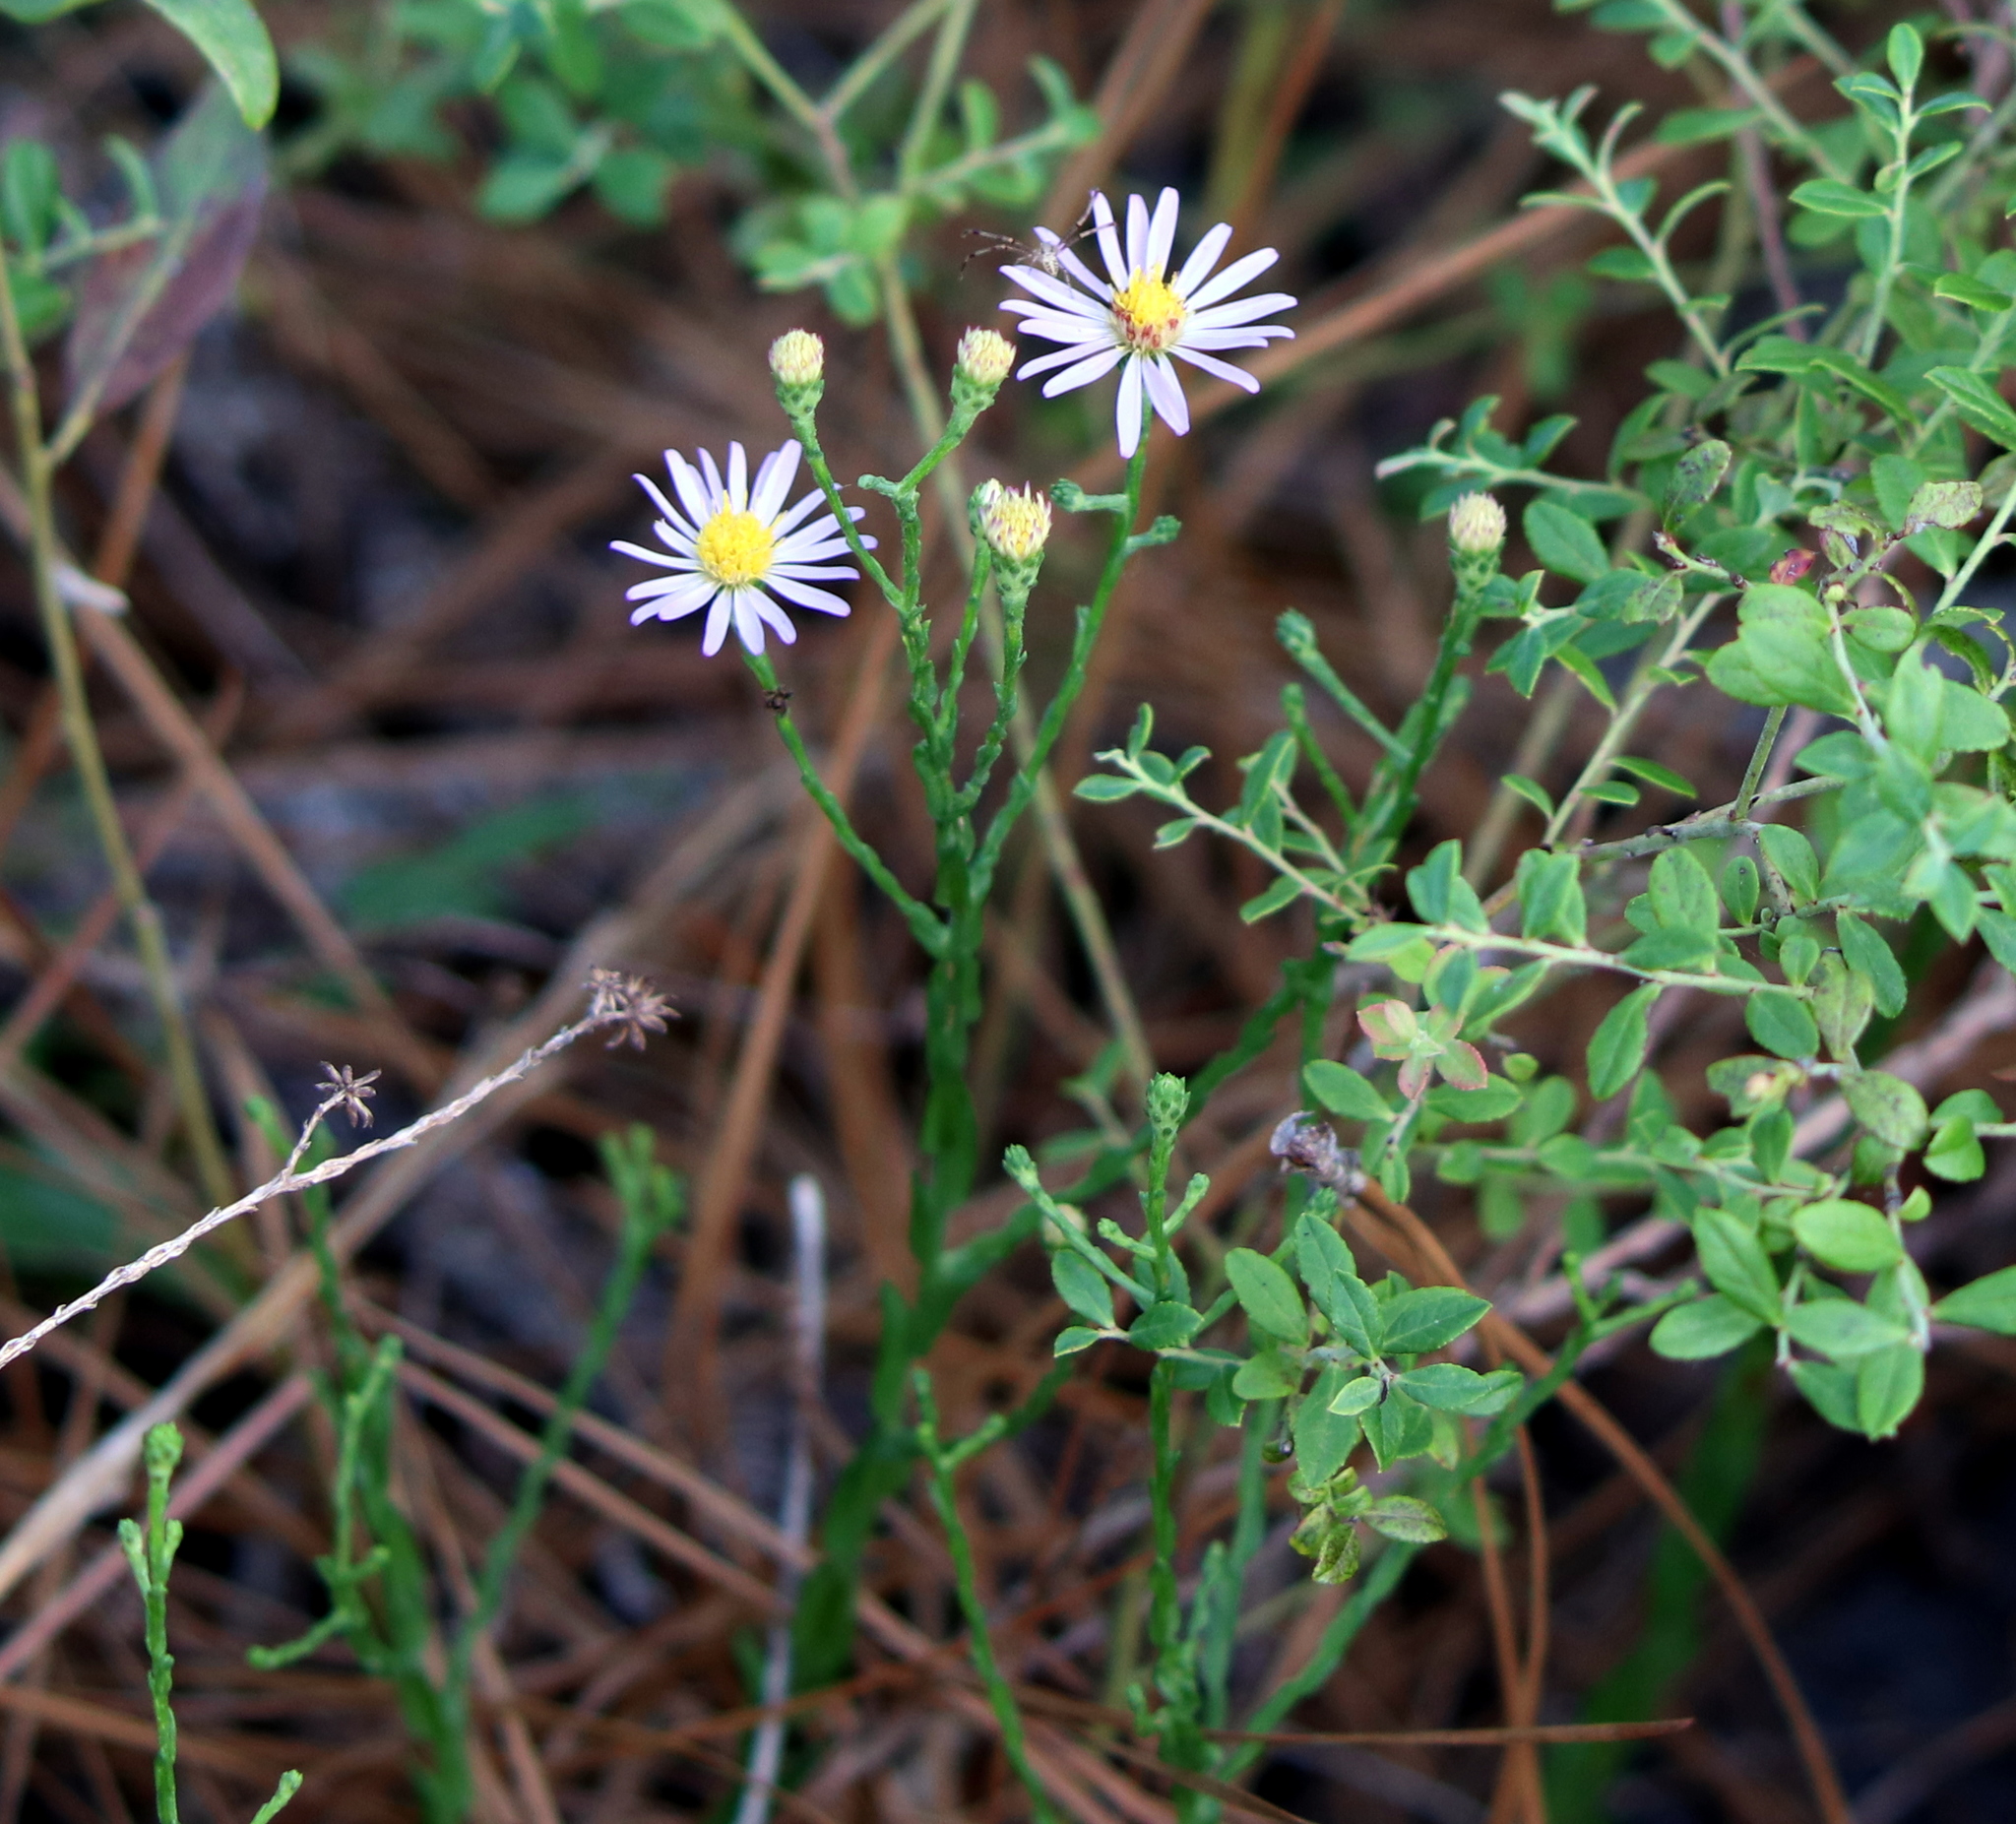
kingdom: Plantae
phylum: Tracheophyta
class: Magnoliopsida
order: Asterales
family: Asteraceae
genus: Symphyotrichum
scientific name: Symphyotrichum adnatum
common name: Scale-leaf aster
